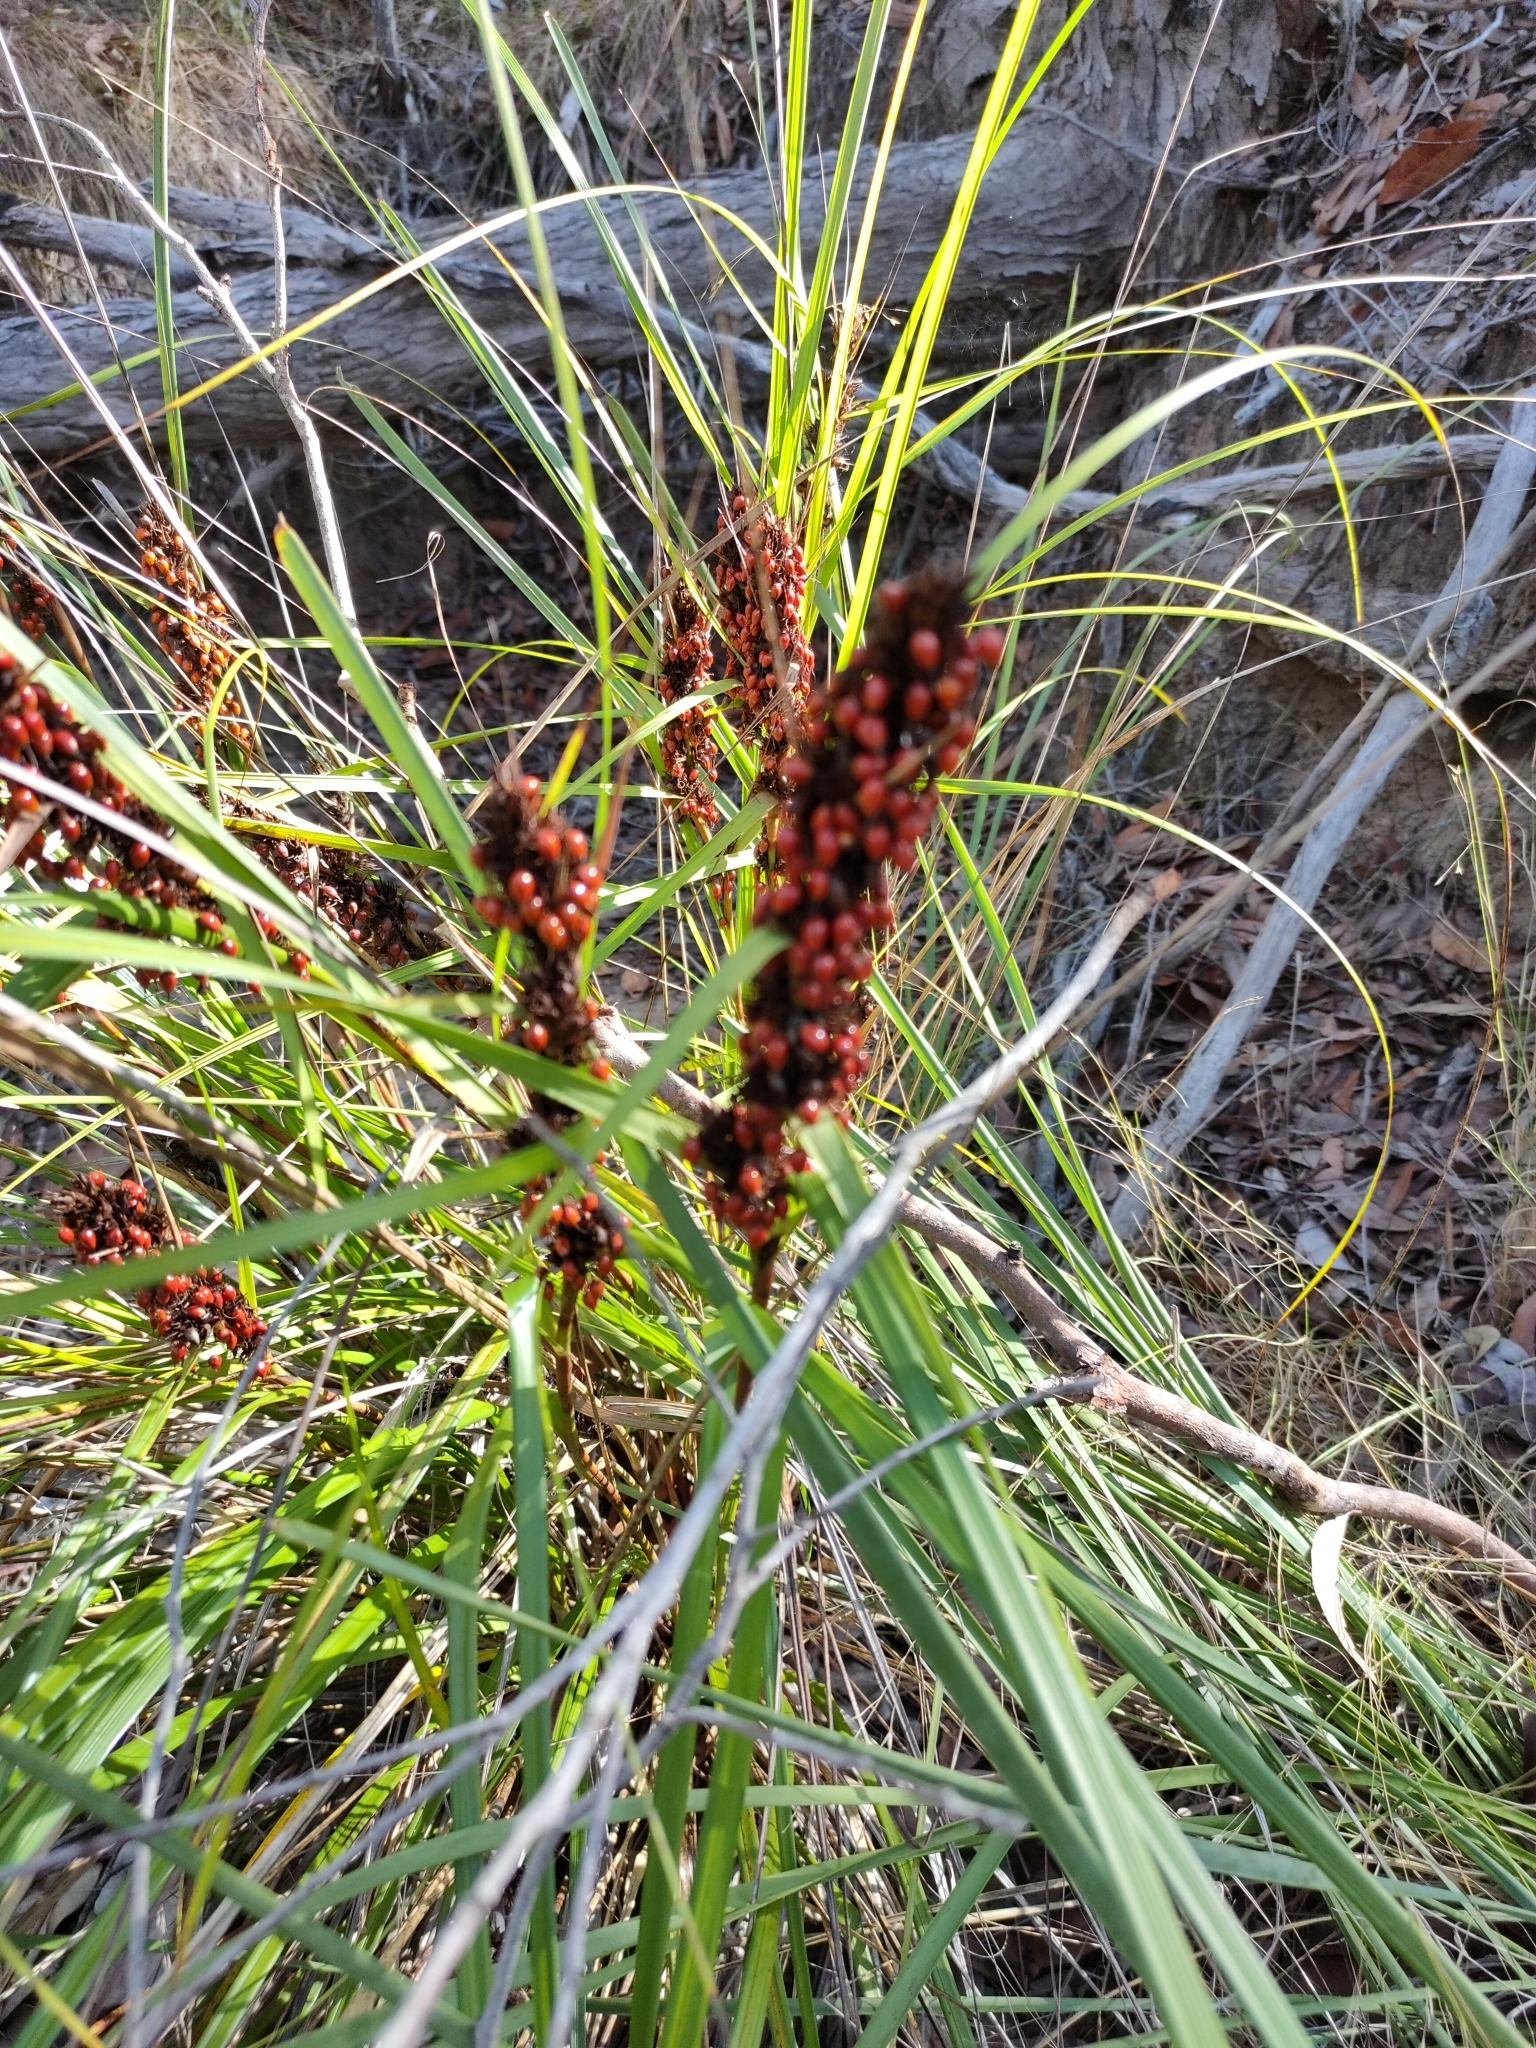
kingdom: Plantae
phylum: Tracheophyta
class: Liliopsida
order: Poales
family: Cyperaceae
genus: Gahnia
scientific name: Gahnia aspera
